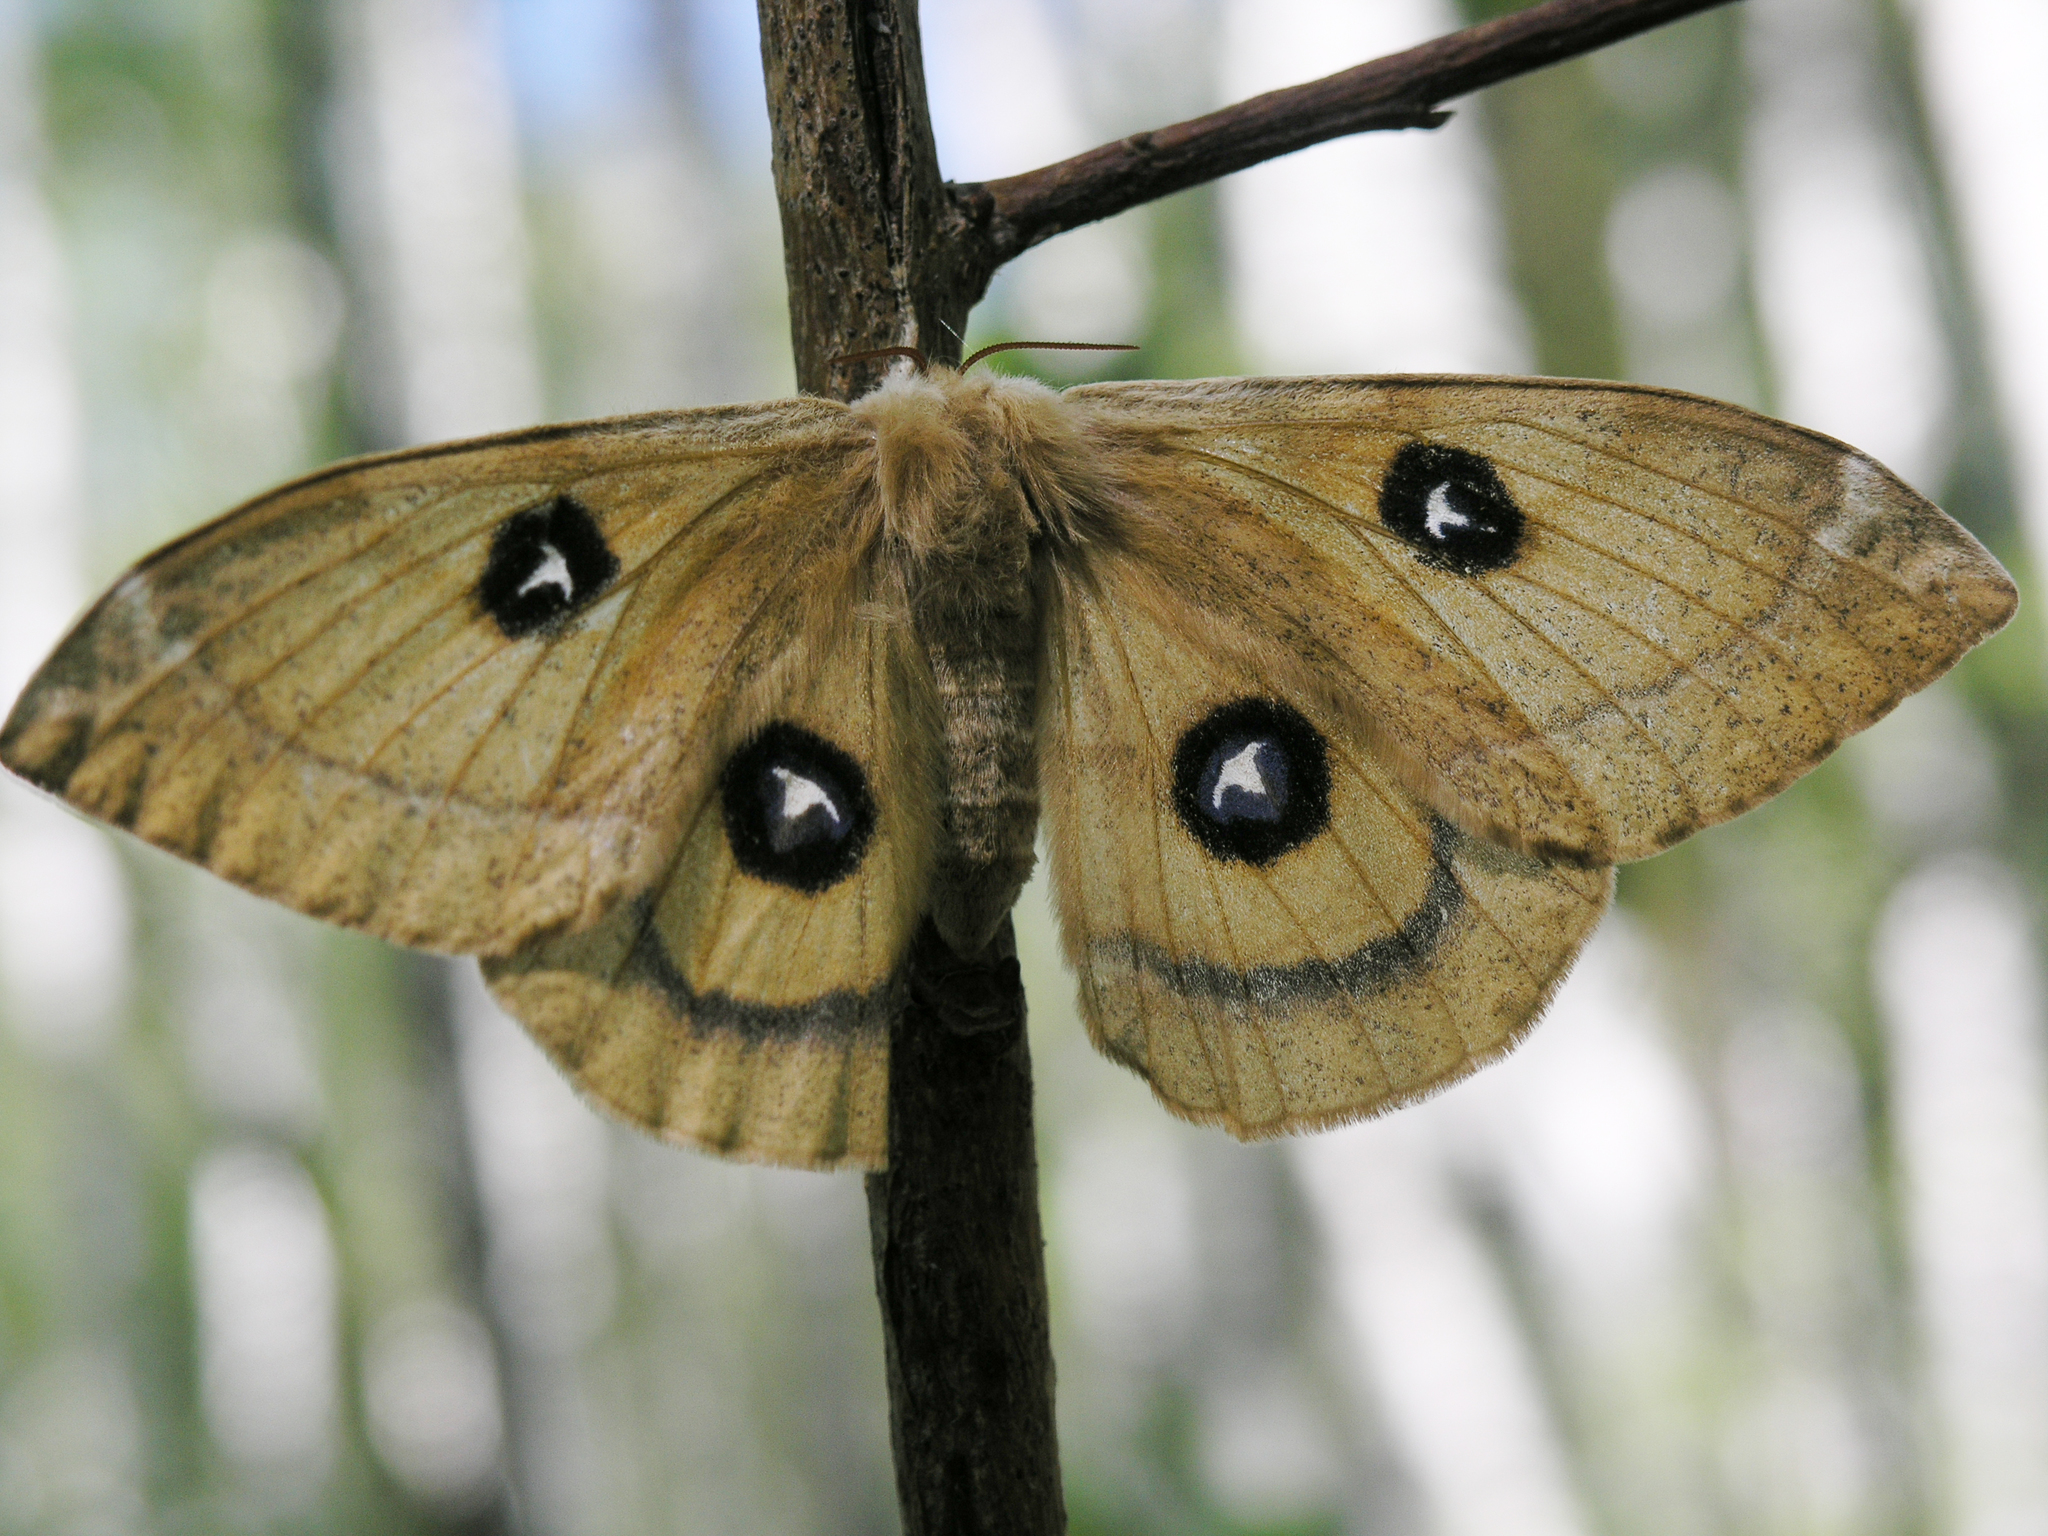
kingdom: Animalia
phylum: Arthropoda
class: Insecta
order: Lepidoptera
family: Saturniidae
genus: Aglia
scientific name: Aglia tau
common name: Tau emperor
